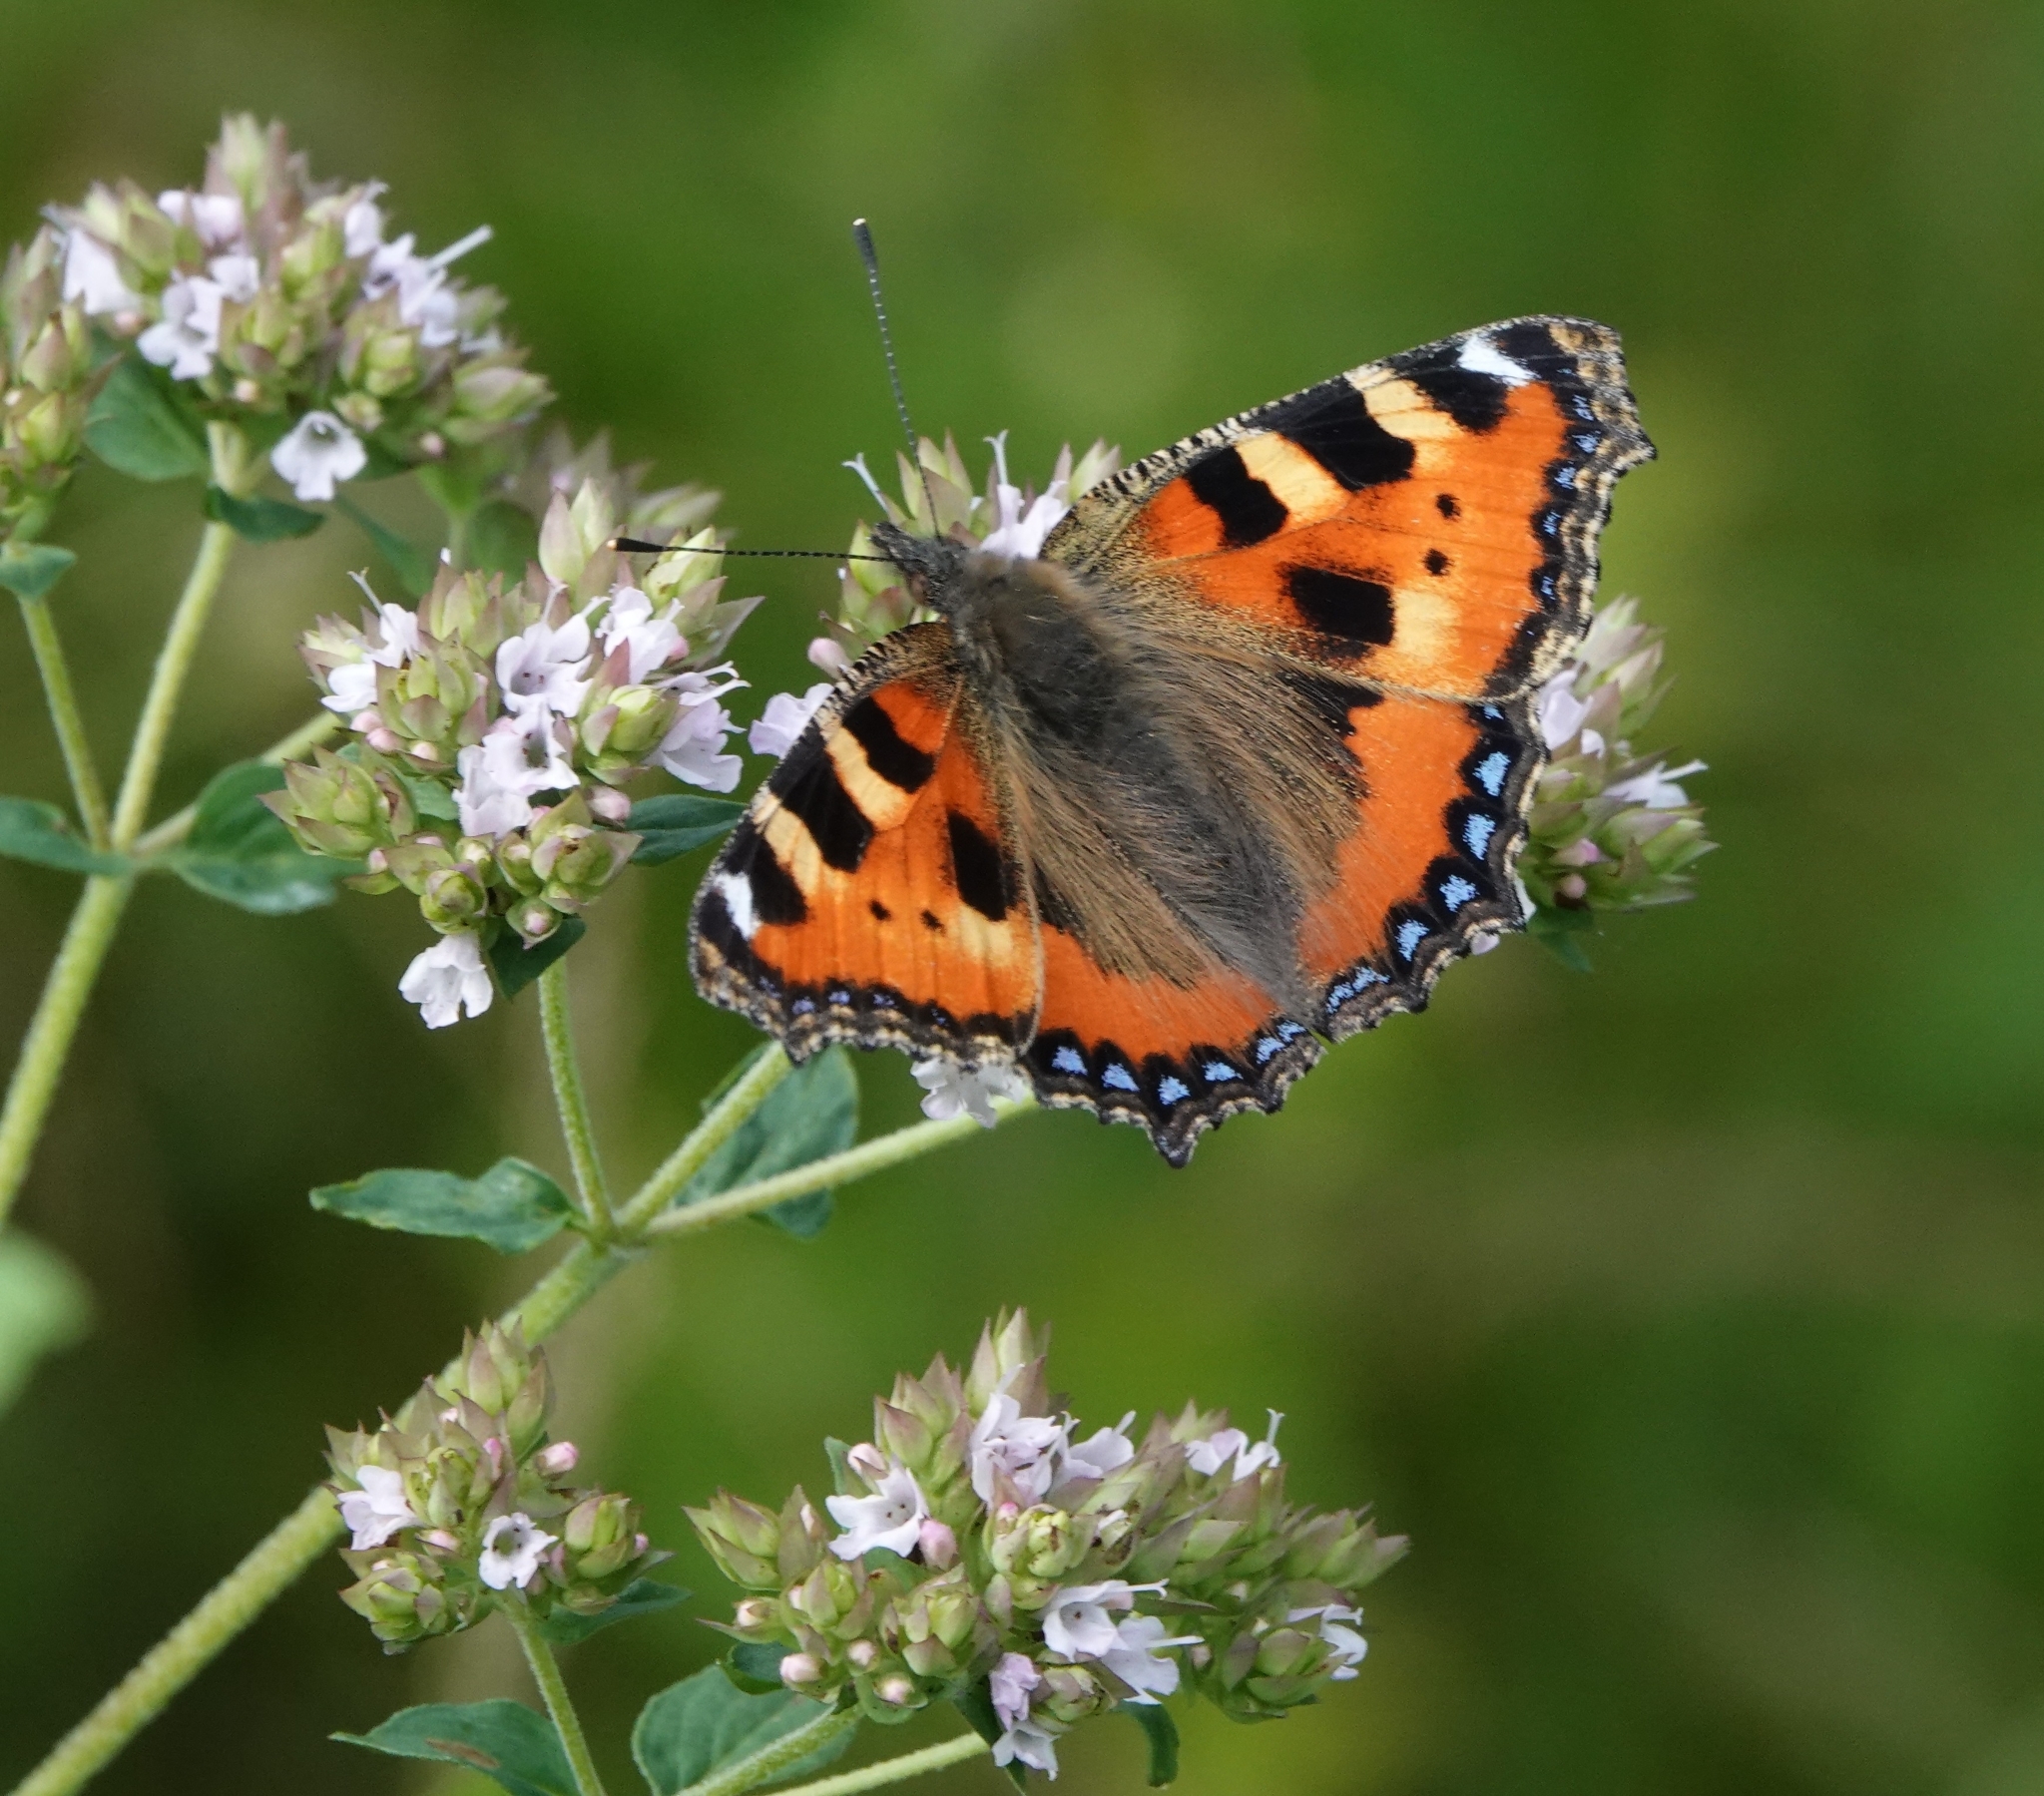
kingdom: Animalia
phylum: Arthropoda
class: Insecta
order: Lepidoptera
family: Nymphalidae
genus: Aglais
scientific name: Aglais urticae
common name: Small tortoiseshell
